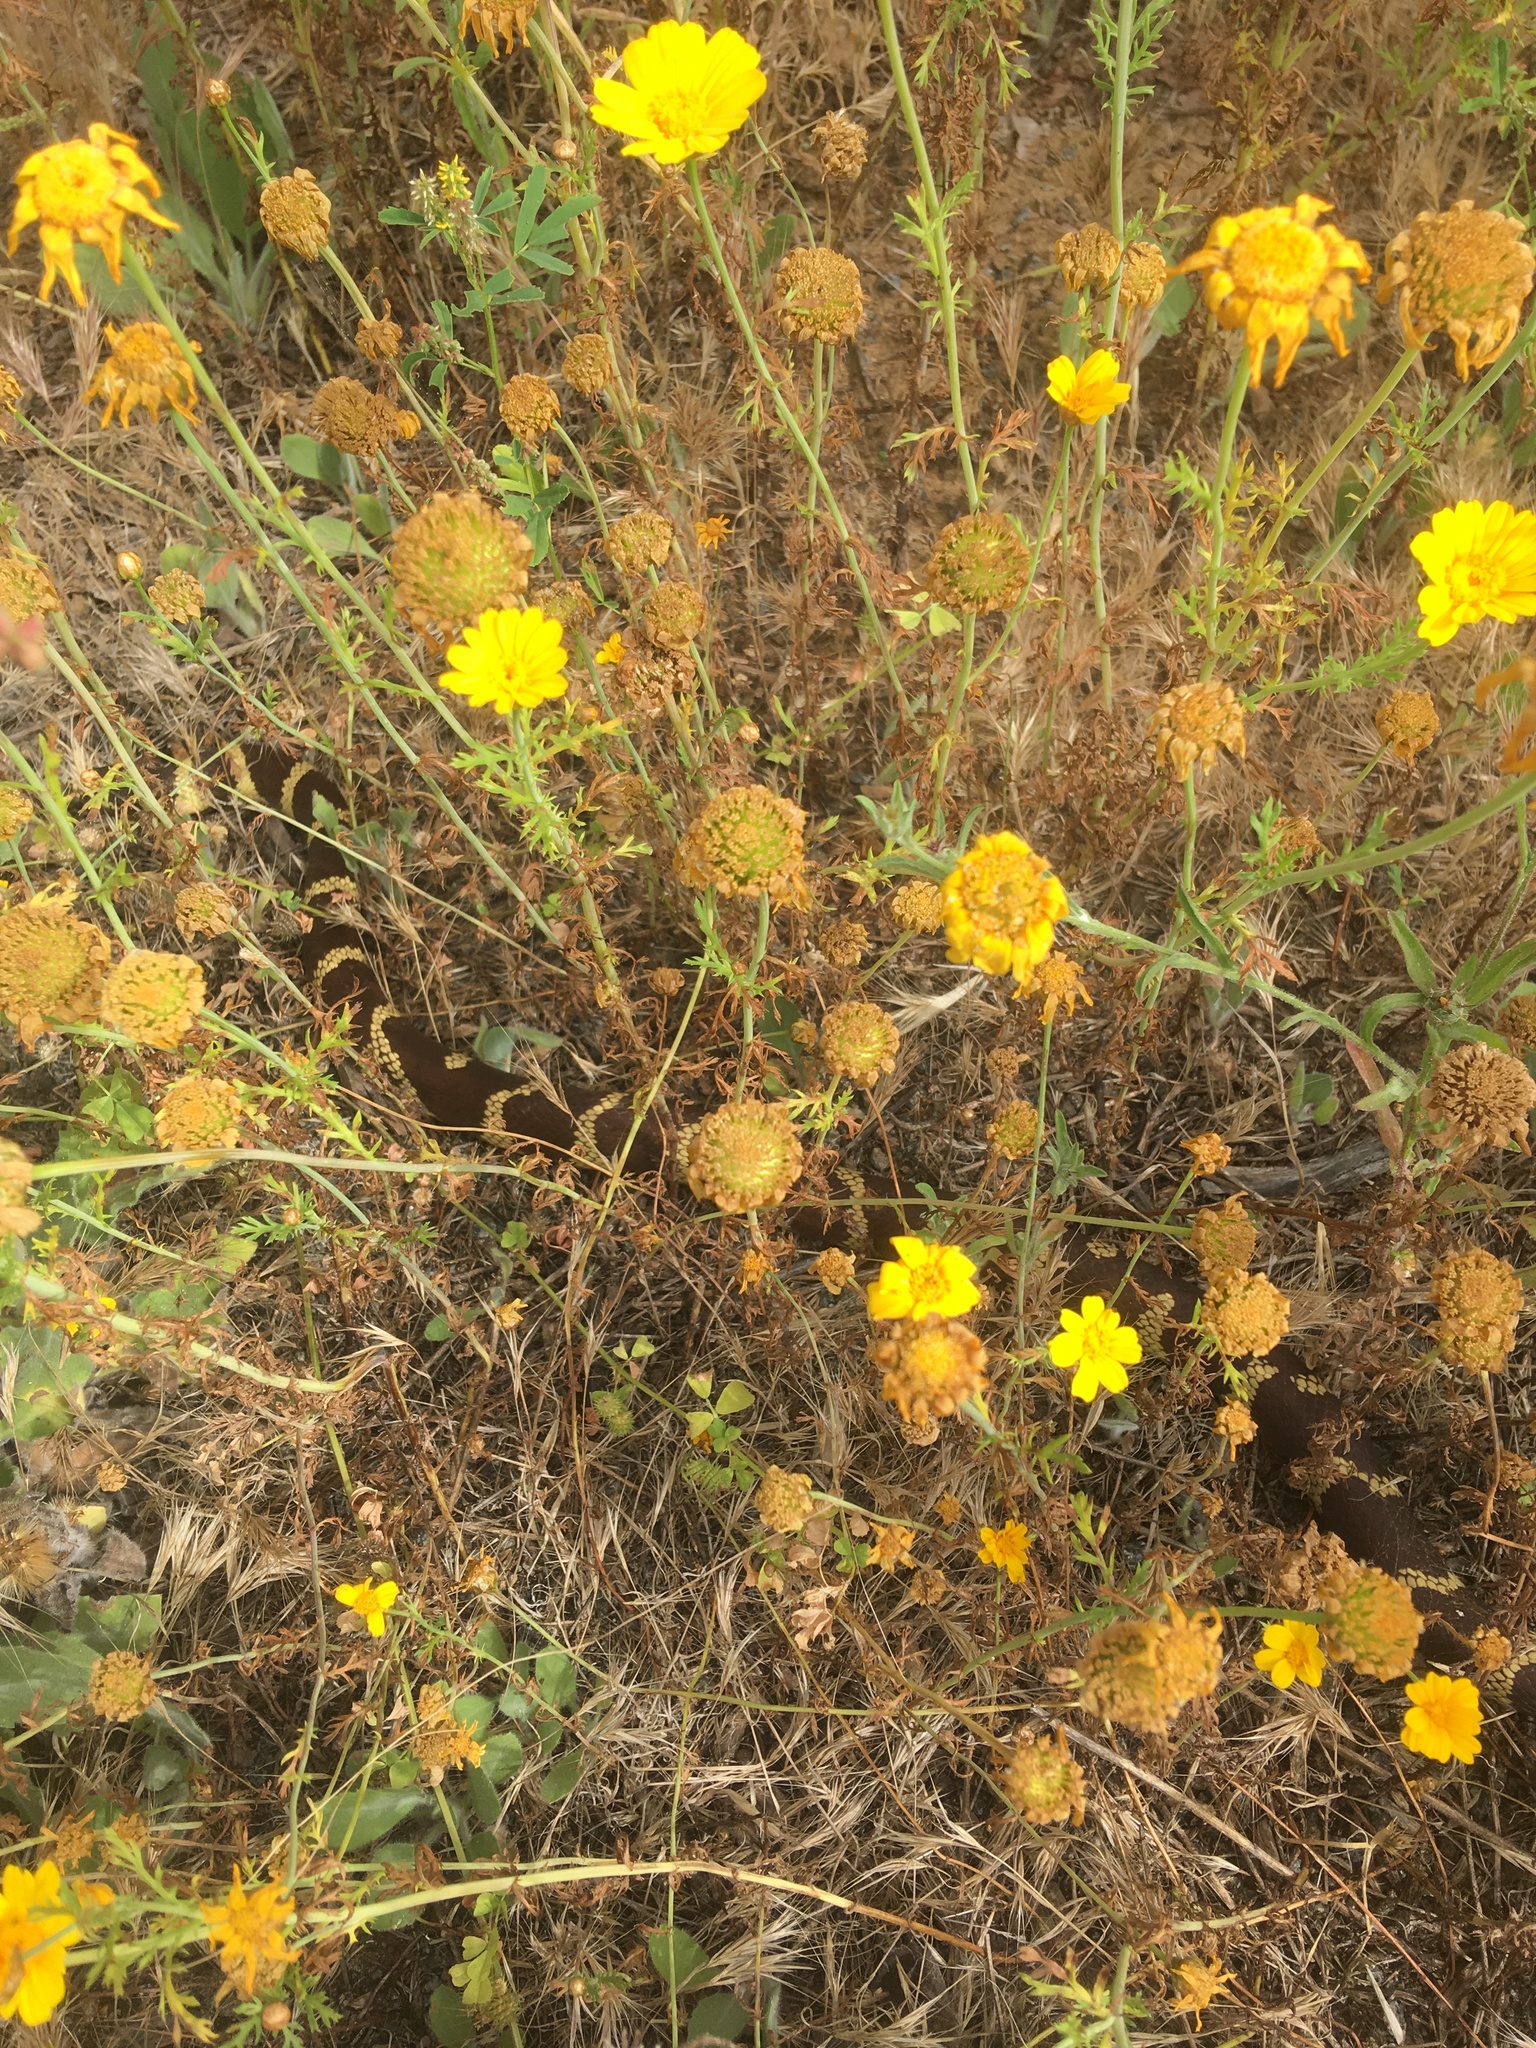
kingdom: Animalia
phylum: Chordata
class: Squamata
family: Colubridae
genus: Lampropeltis
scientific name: Lampropeltis californiae
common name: California kingsnake
